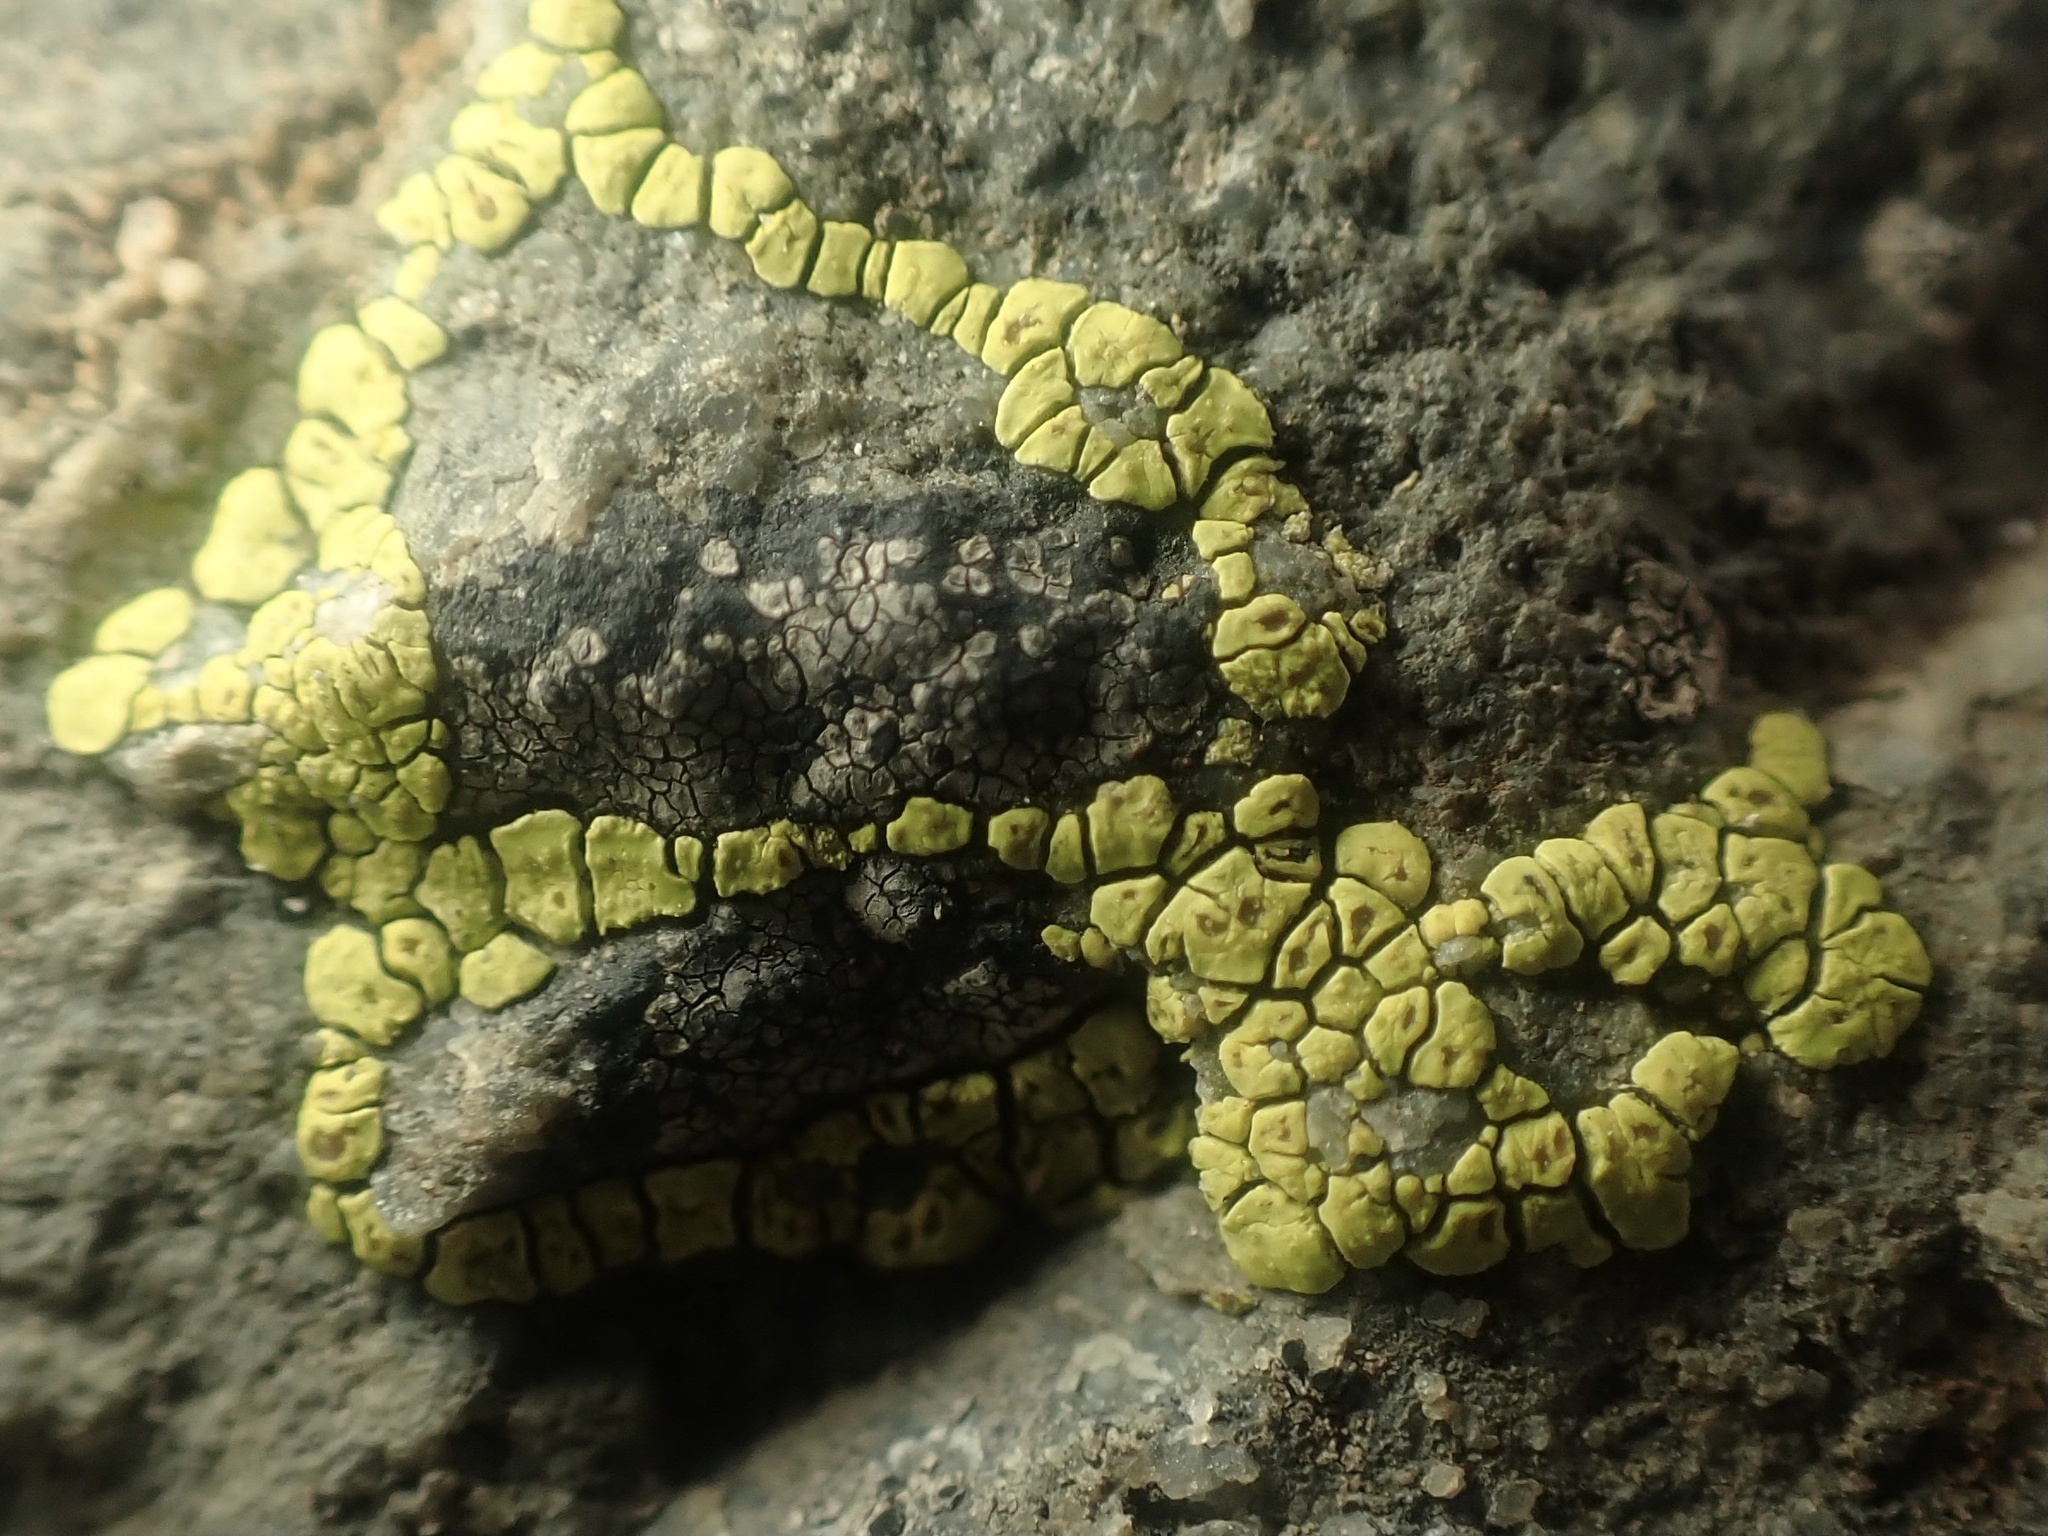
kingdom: Fungi
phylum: Ascomycota
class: Lecanoromycetes
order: Acarosporales
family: Acarosporaceae
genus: Acarospora
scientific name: Acarospora socialis
